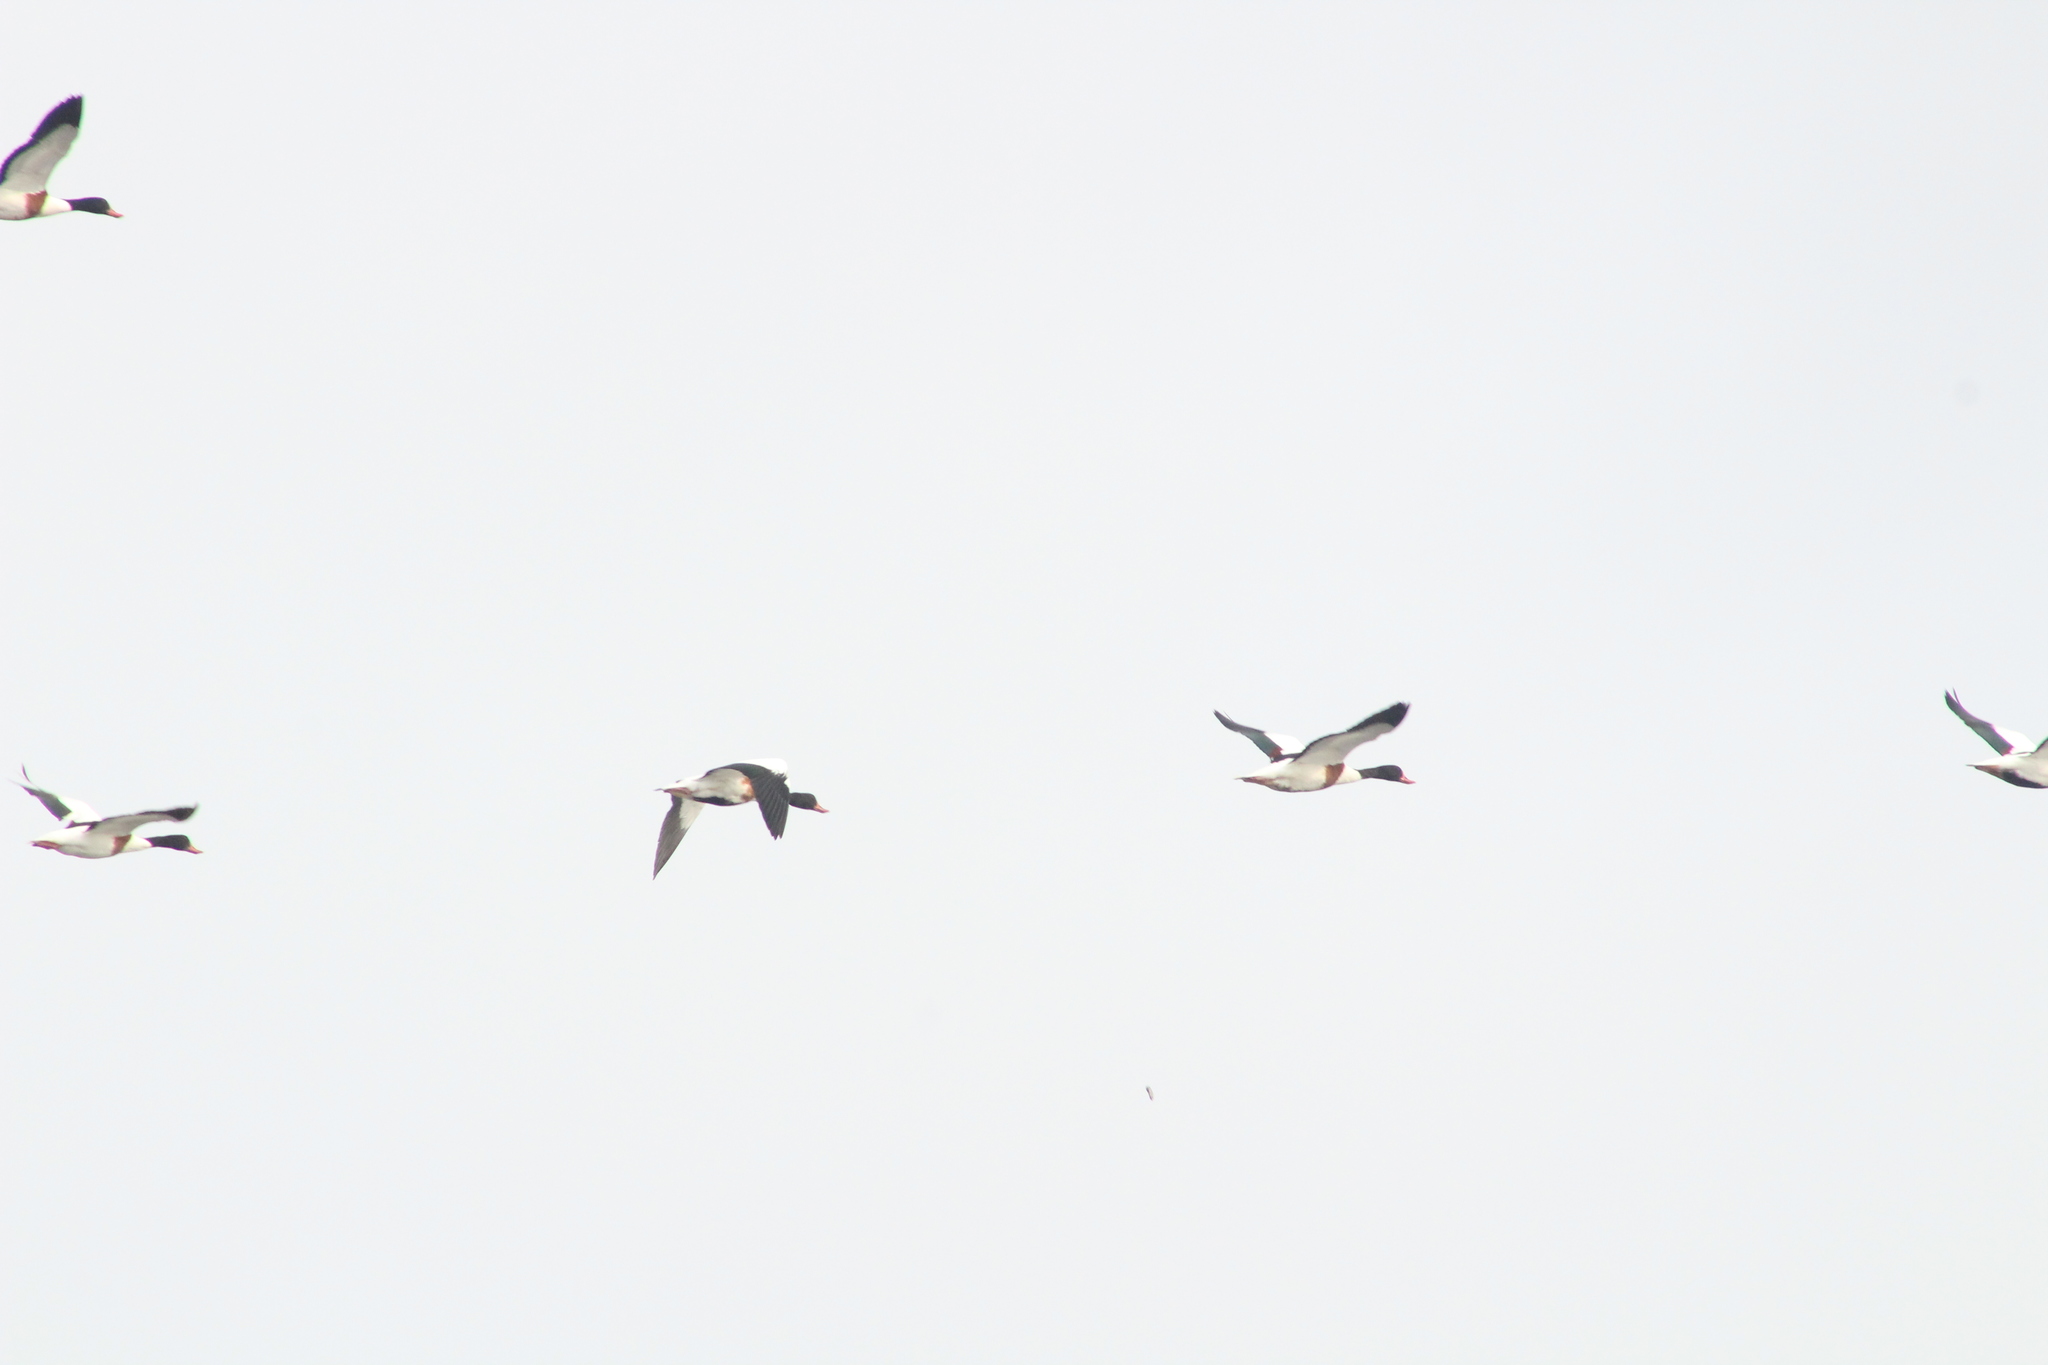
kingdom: Animalia
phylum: Chordata
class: Aves
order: Anseriformes
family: Anatidae
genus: Tadorna
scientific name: Tadorna tadorna
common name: Common shelduck
